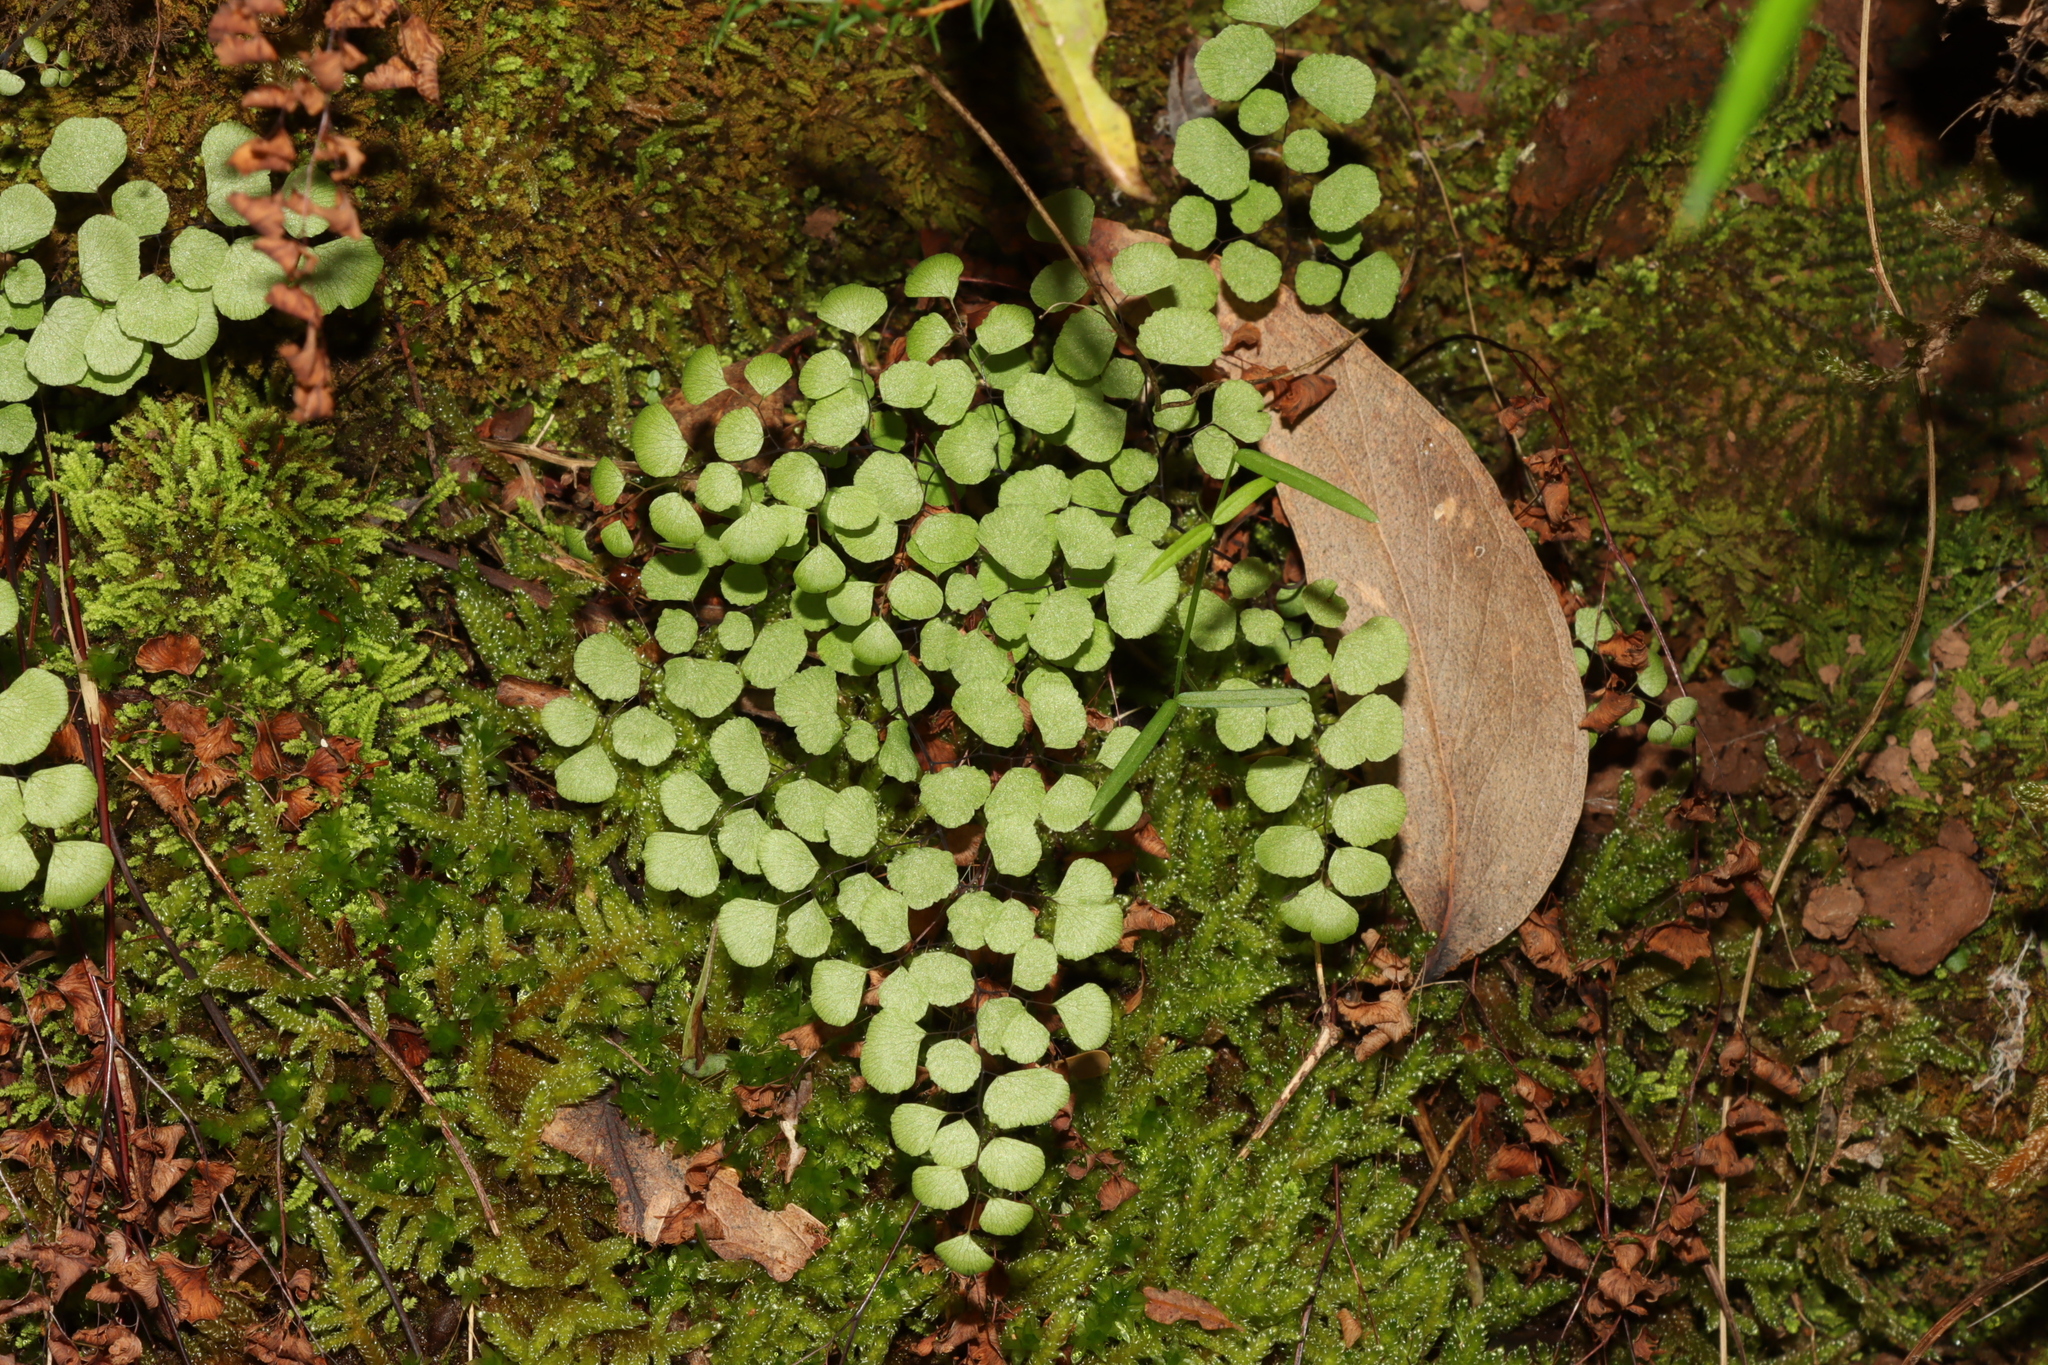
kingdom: Plantae
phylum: Tracheophyta
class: Polypodiopsida
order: Polypodiales
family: Pteridaceae
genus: Adiantum
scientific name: Adiantum aethiopicum
